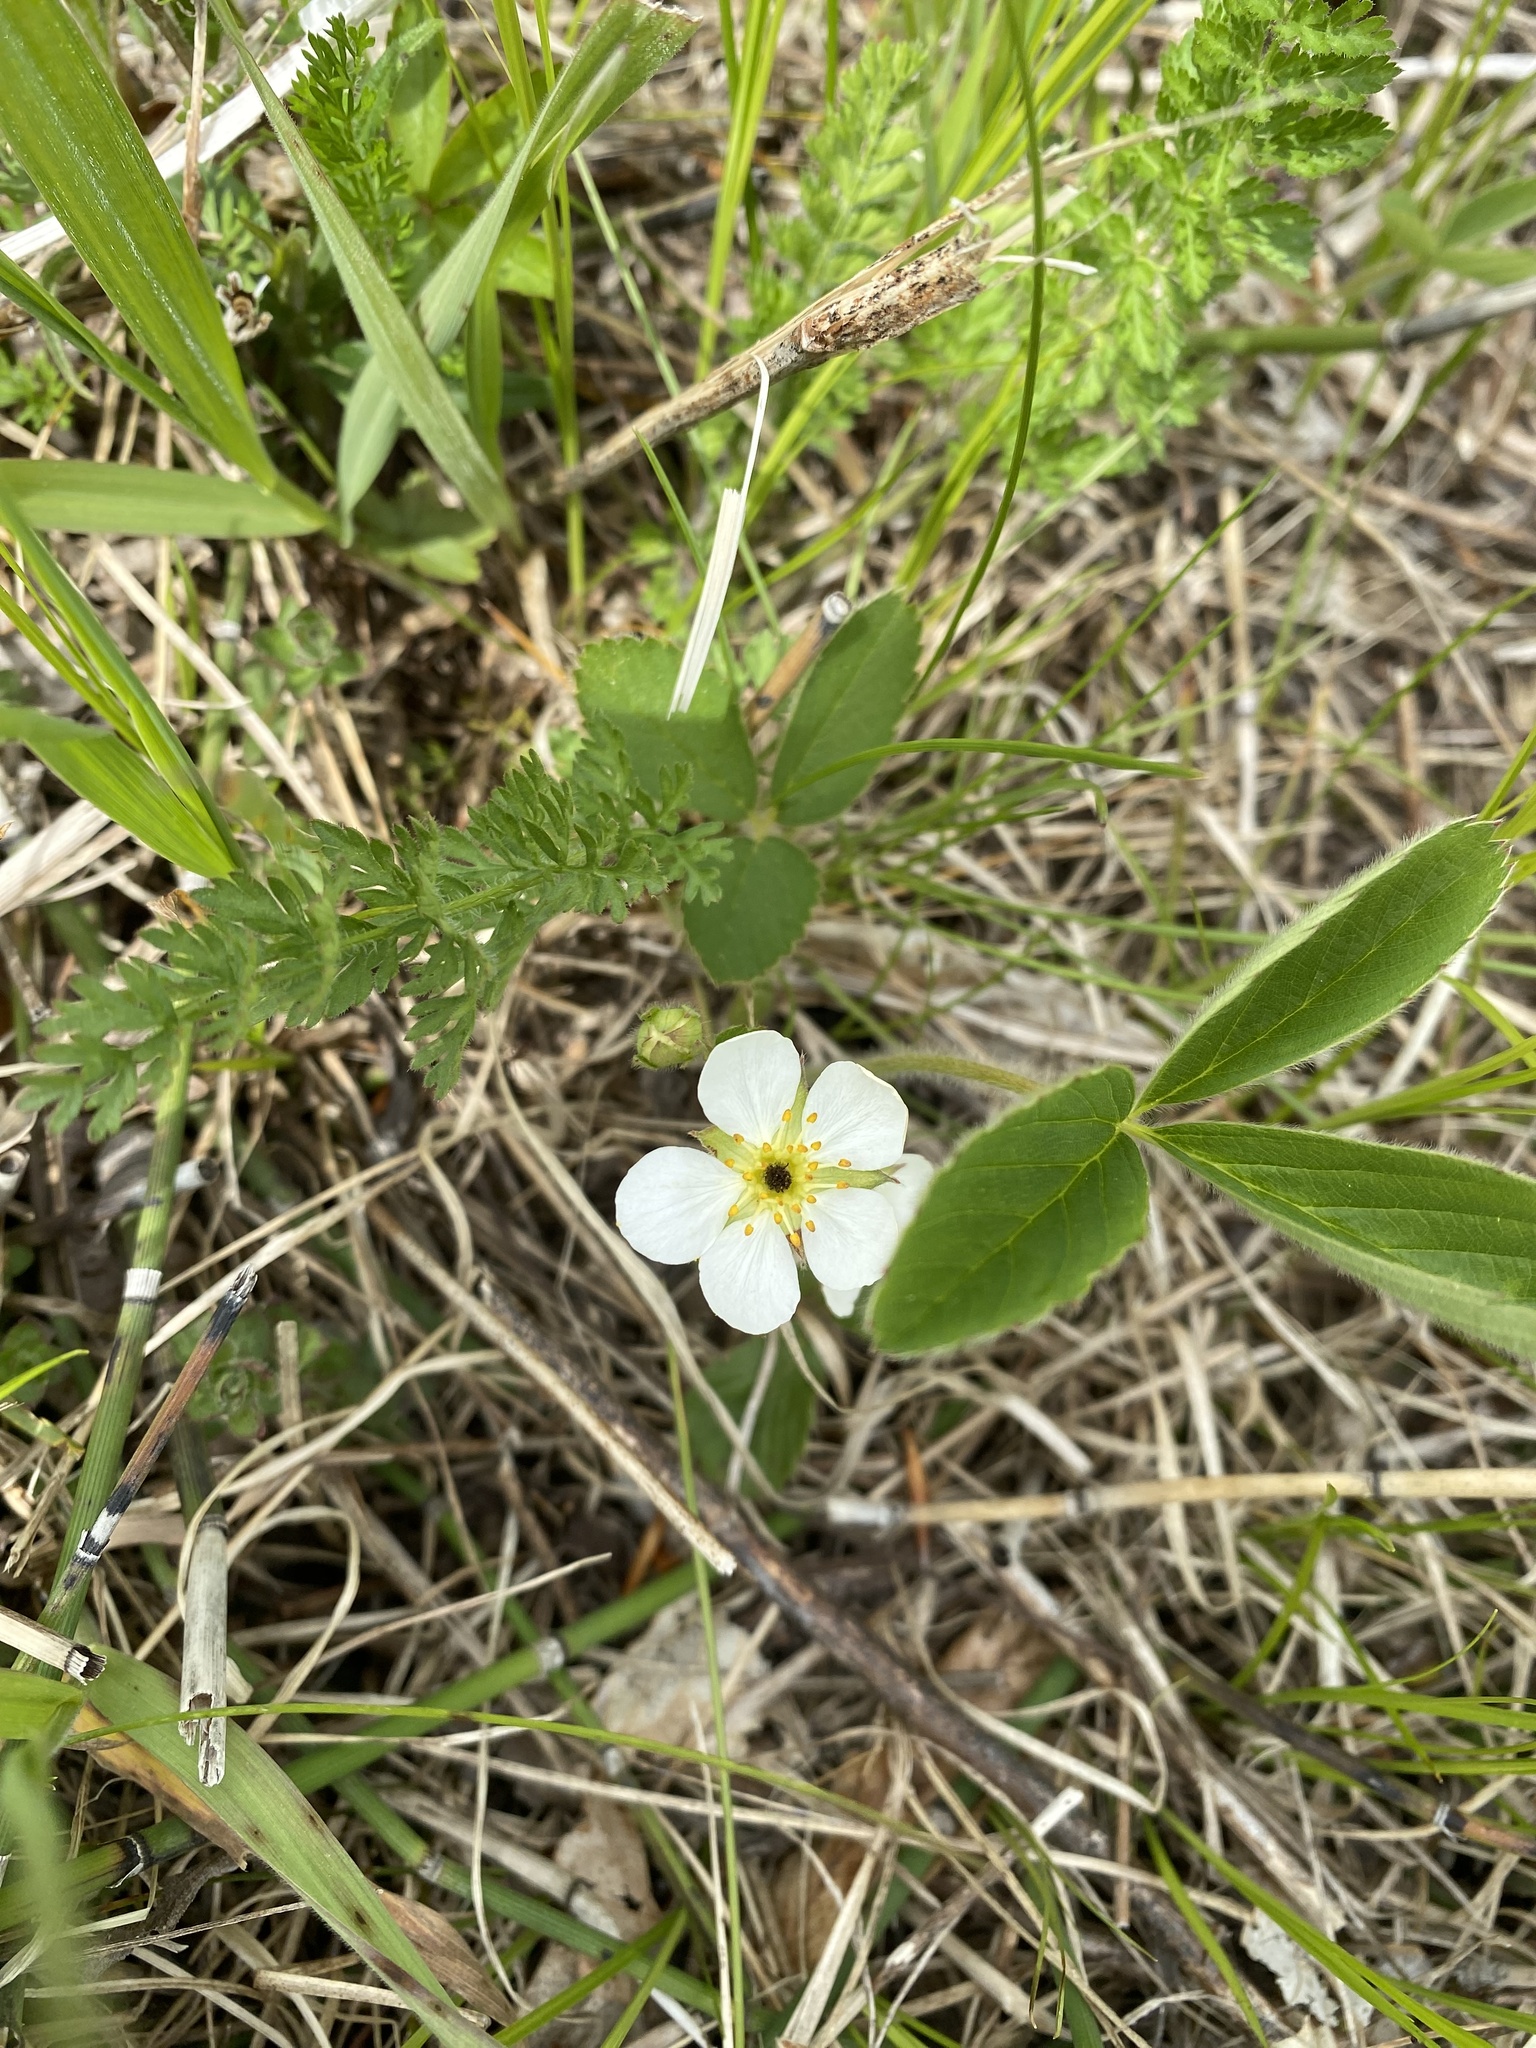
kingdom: Plantae
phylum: Tracheophyta
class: Magnoliopsida
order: Rosales
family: Rosaceae
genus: Fragaria
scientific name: Fragaria virginiana
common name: Thickleaved wild strawberry
